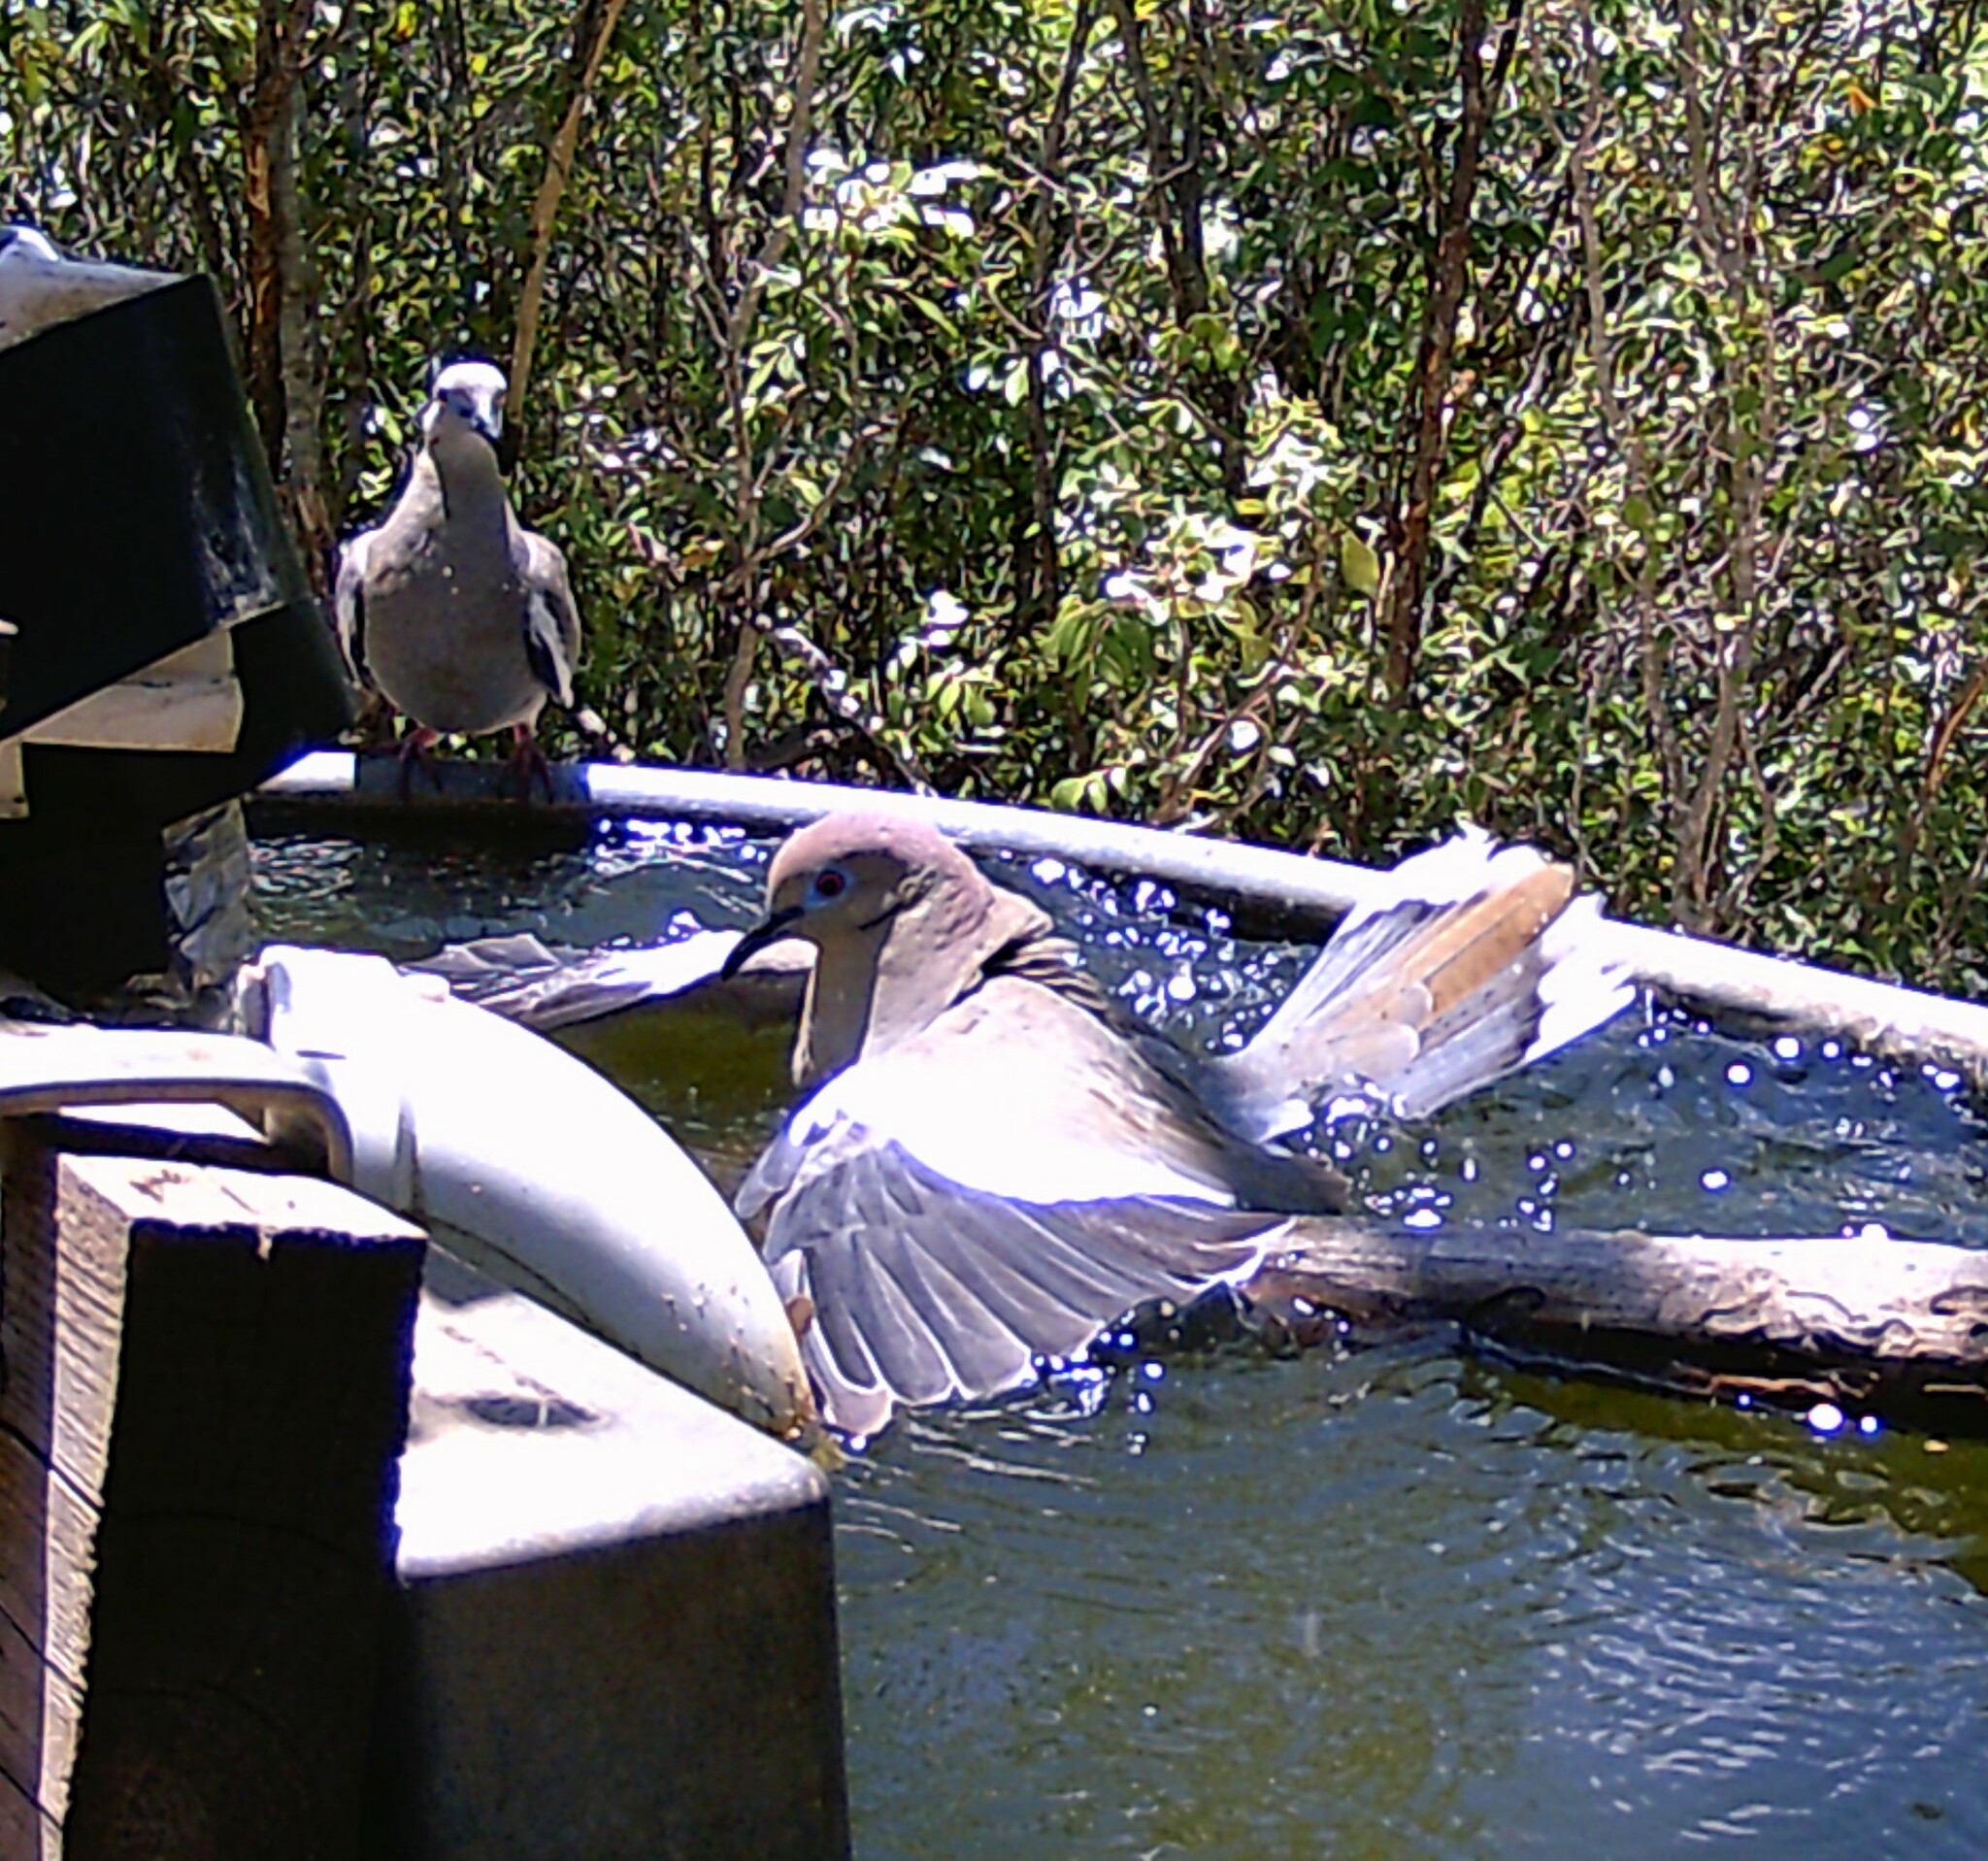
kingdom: Animalia
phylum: Chordata
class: Aves
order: Columbiformes
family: Columbidae
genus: Zenaida
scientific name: Zenaida asiatica
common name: White-winged dove
